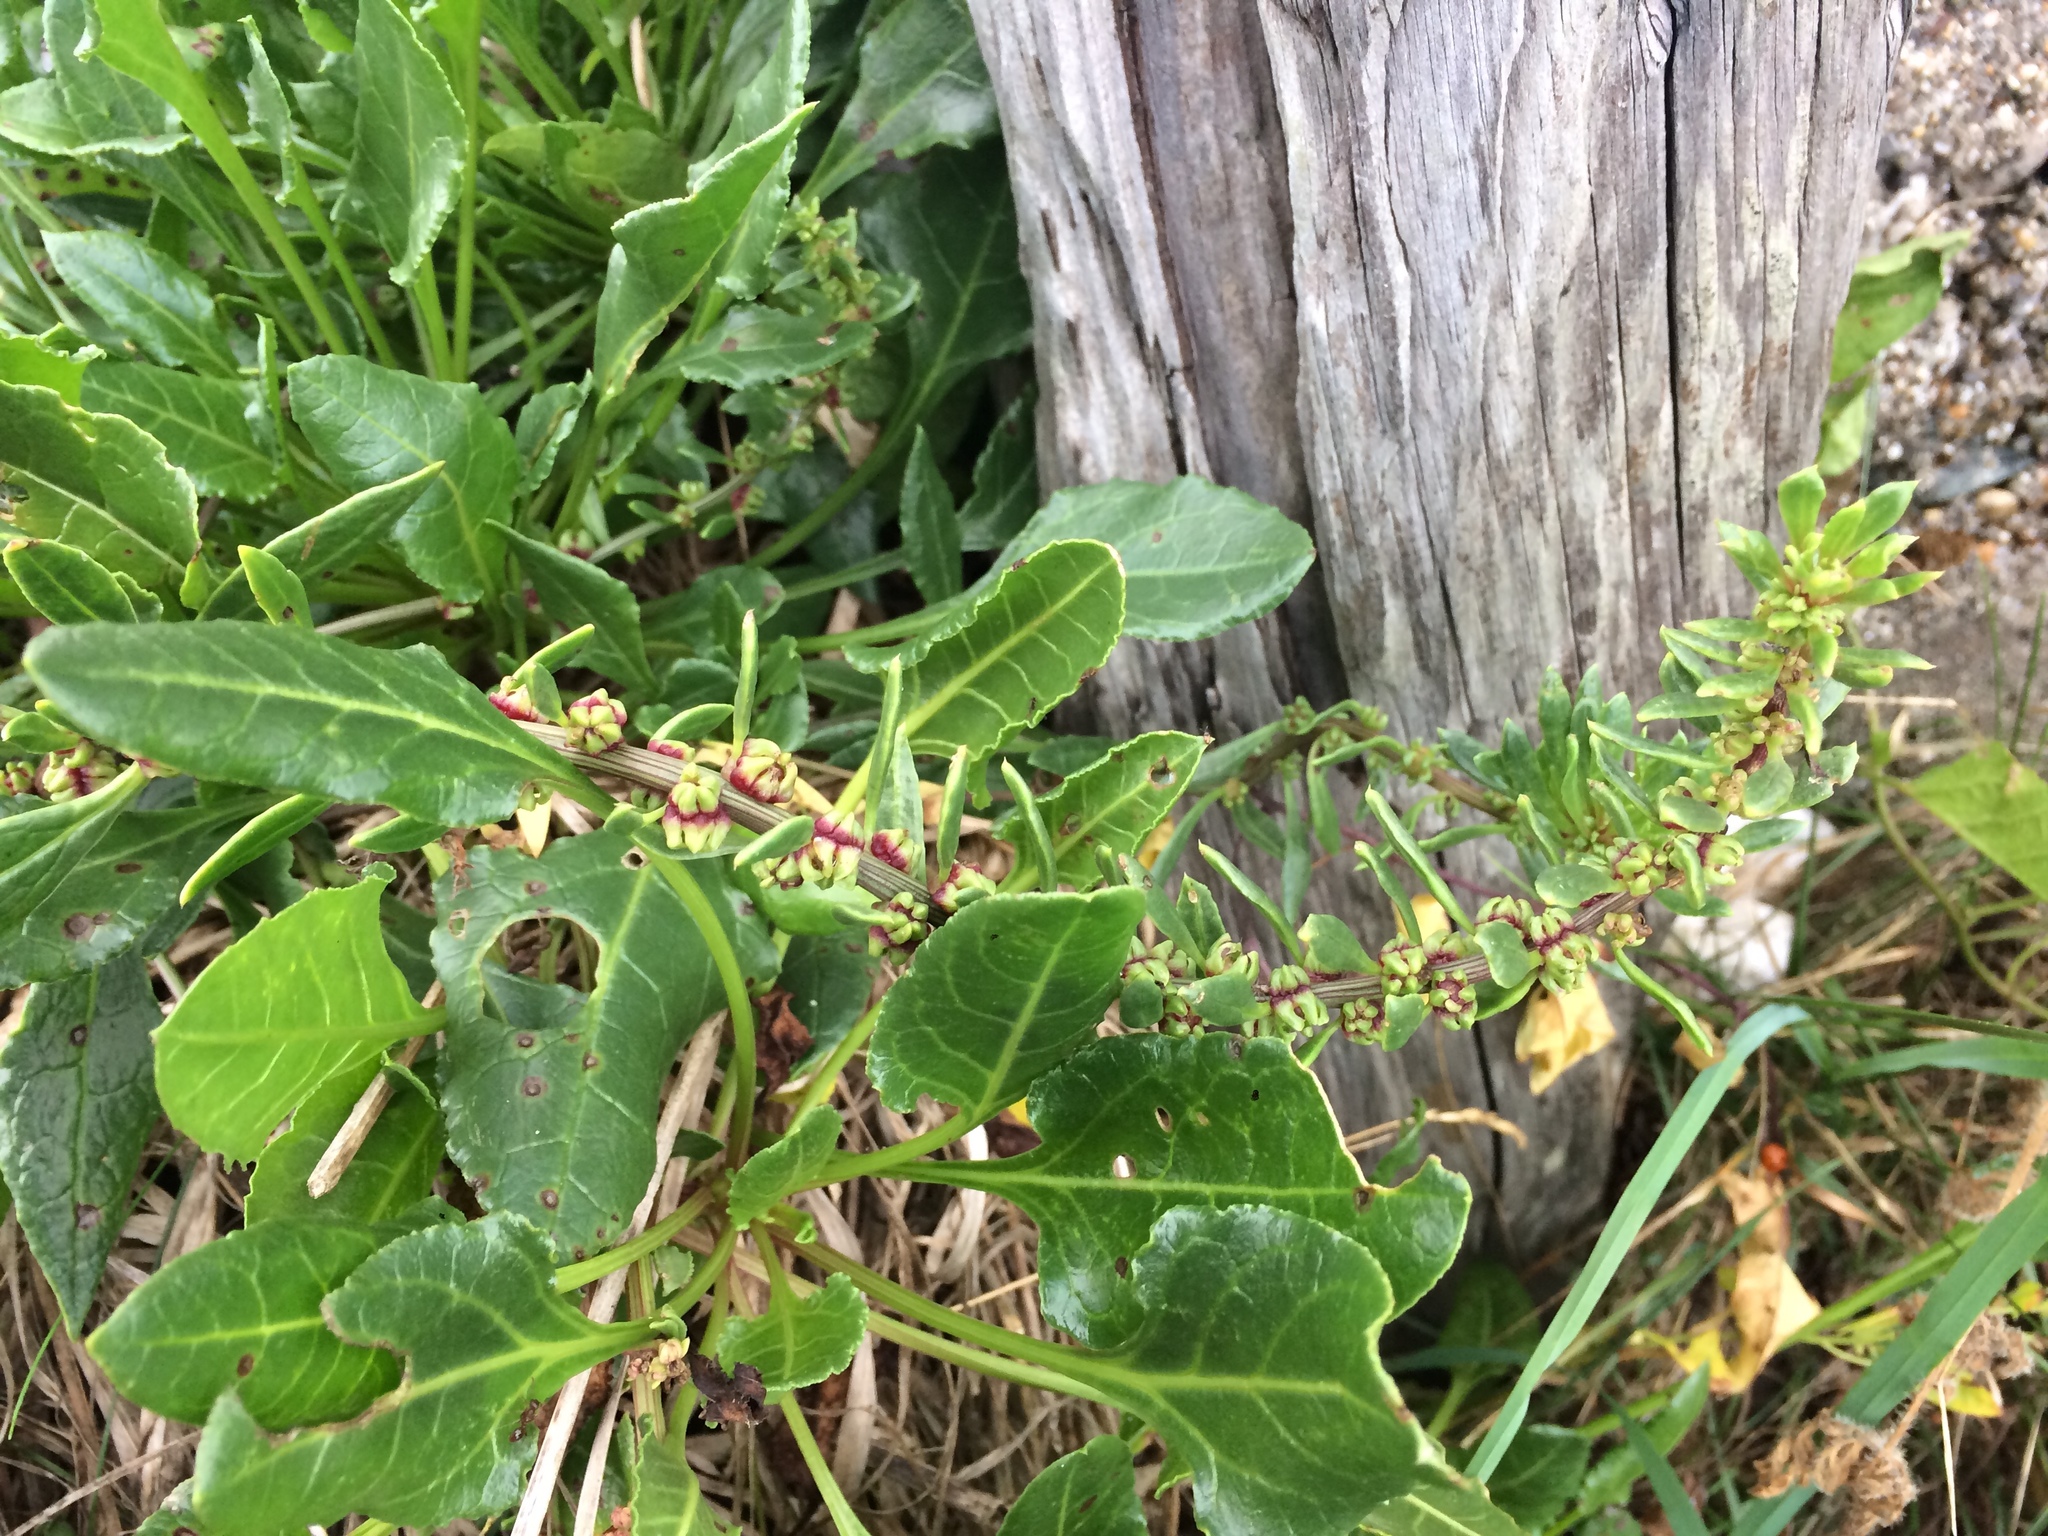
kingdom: Plantae
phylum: Tracheophyta
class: Magnoliopsida
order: Caryophyllales
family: Amaranthaceae
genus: Beta
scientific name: Beta vulgaris
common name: Beet
